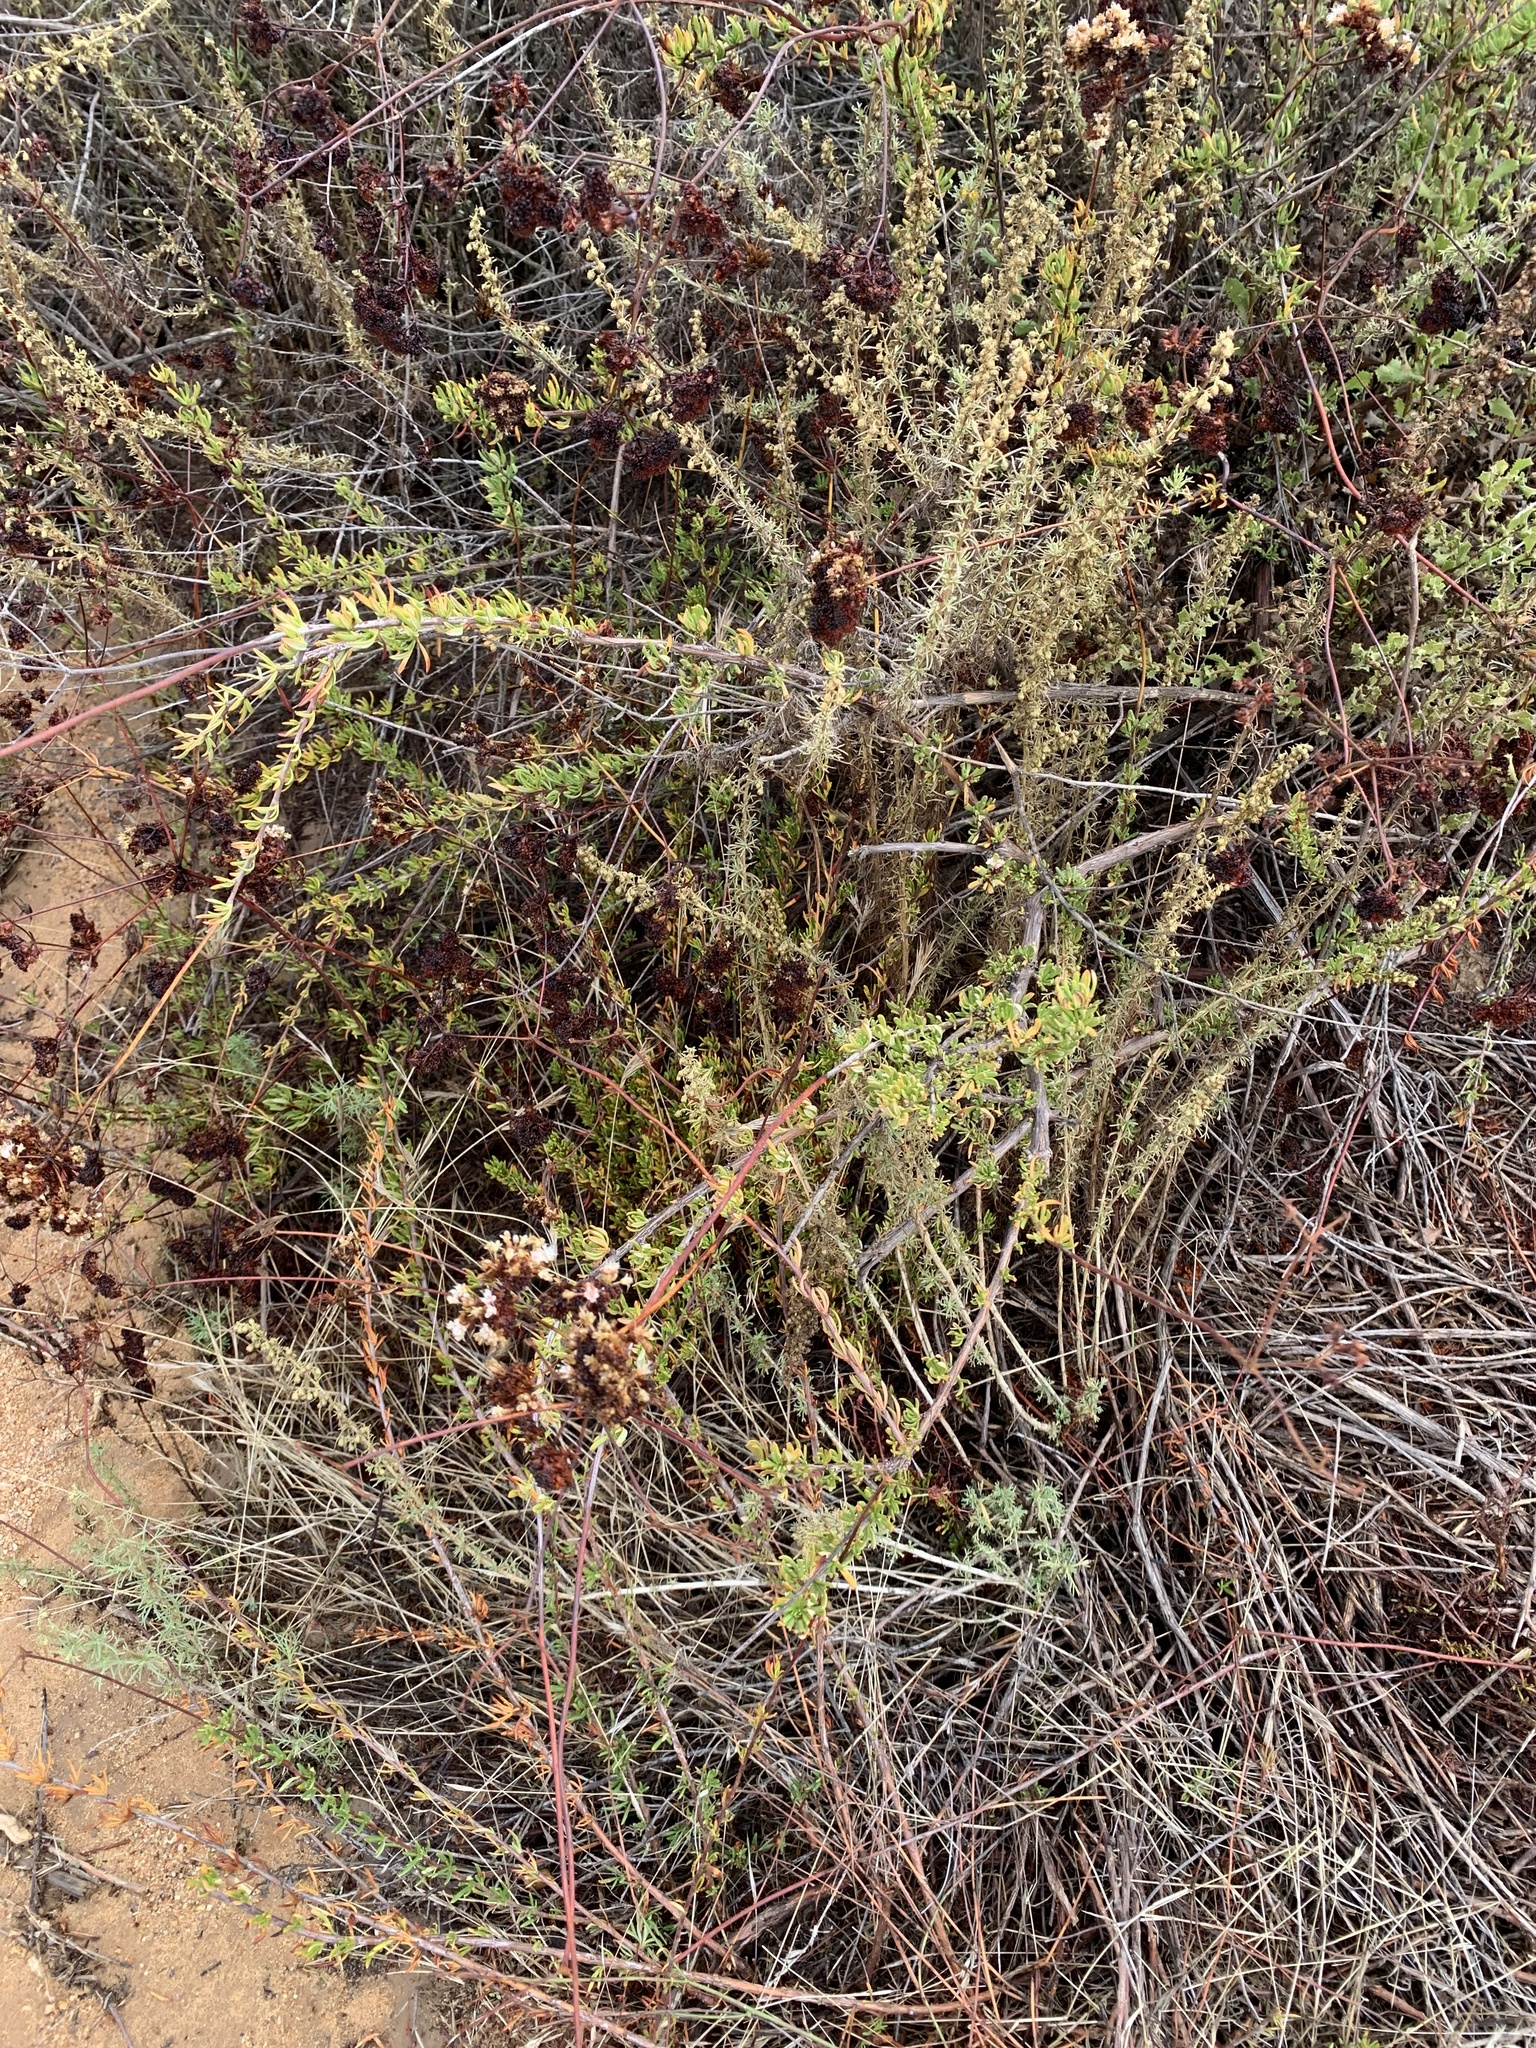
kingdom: Plantae
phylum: Tracheophyta
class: Magnoliopsida
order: Caryophyllales
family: Polygonaceae
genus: Eriogonum
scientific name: Eriogonum fasciculatum
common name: California wild buckwheat
